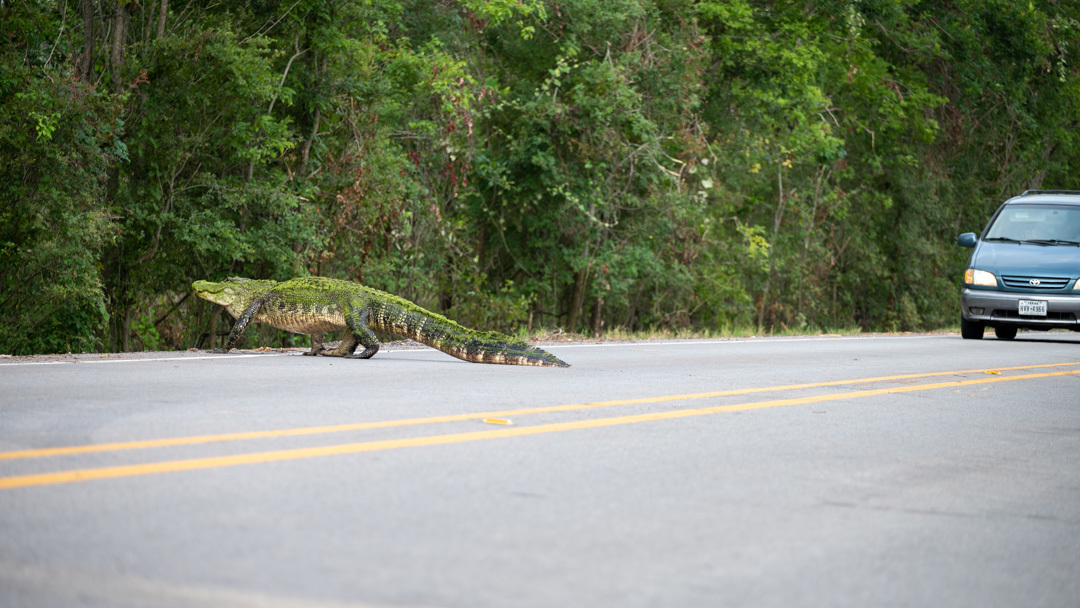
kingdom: Animalia
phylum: Chordata
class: Crocodylia
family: Alligatoridae
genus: Alligator
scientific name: Alligator mississippiensis
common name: American alligator
